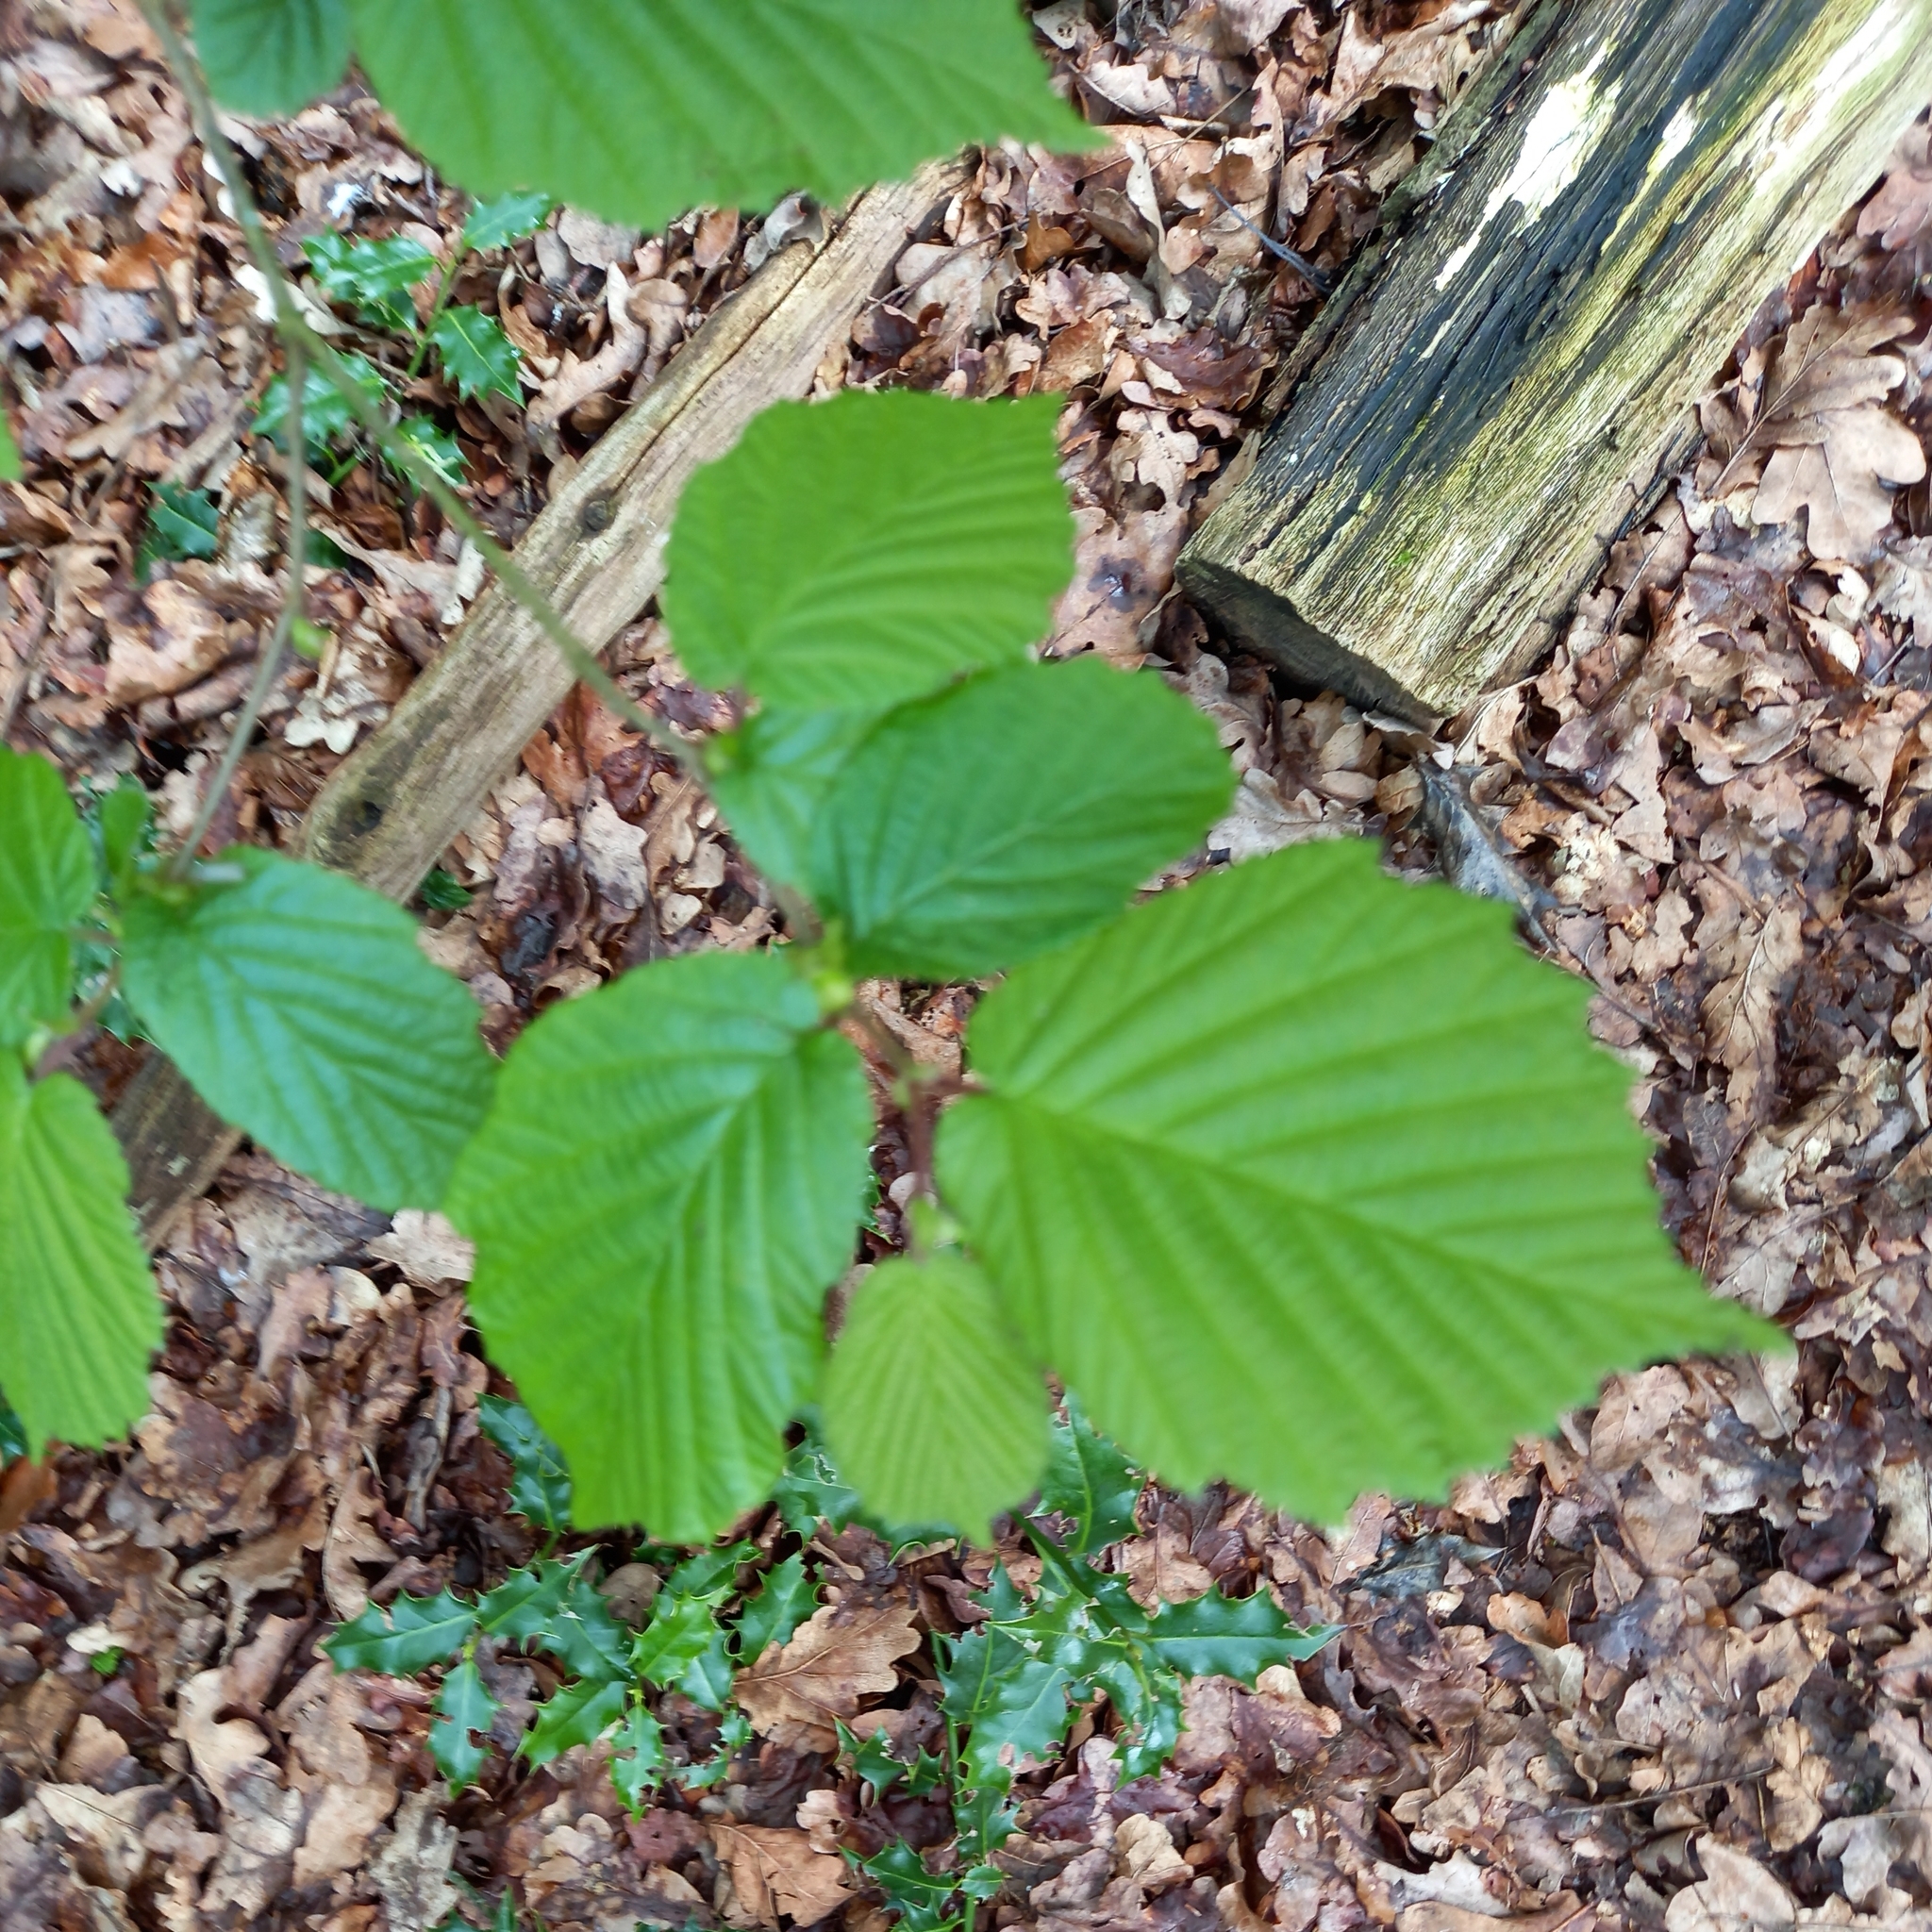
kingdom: Plantae
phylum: Tracheophyta
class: Magnoliopsida
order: Fagales
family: Betulaceae
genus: Corylus
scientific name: Corylus avellana
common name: European hazel
